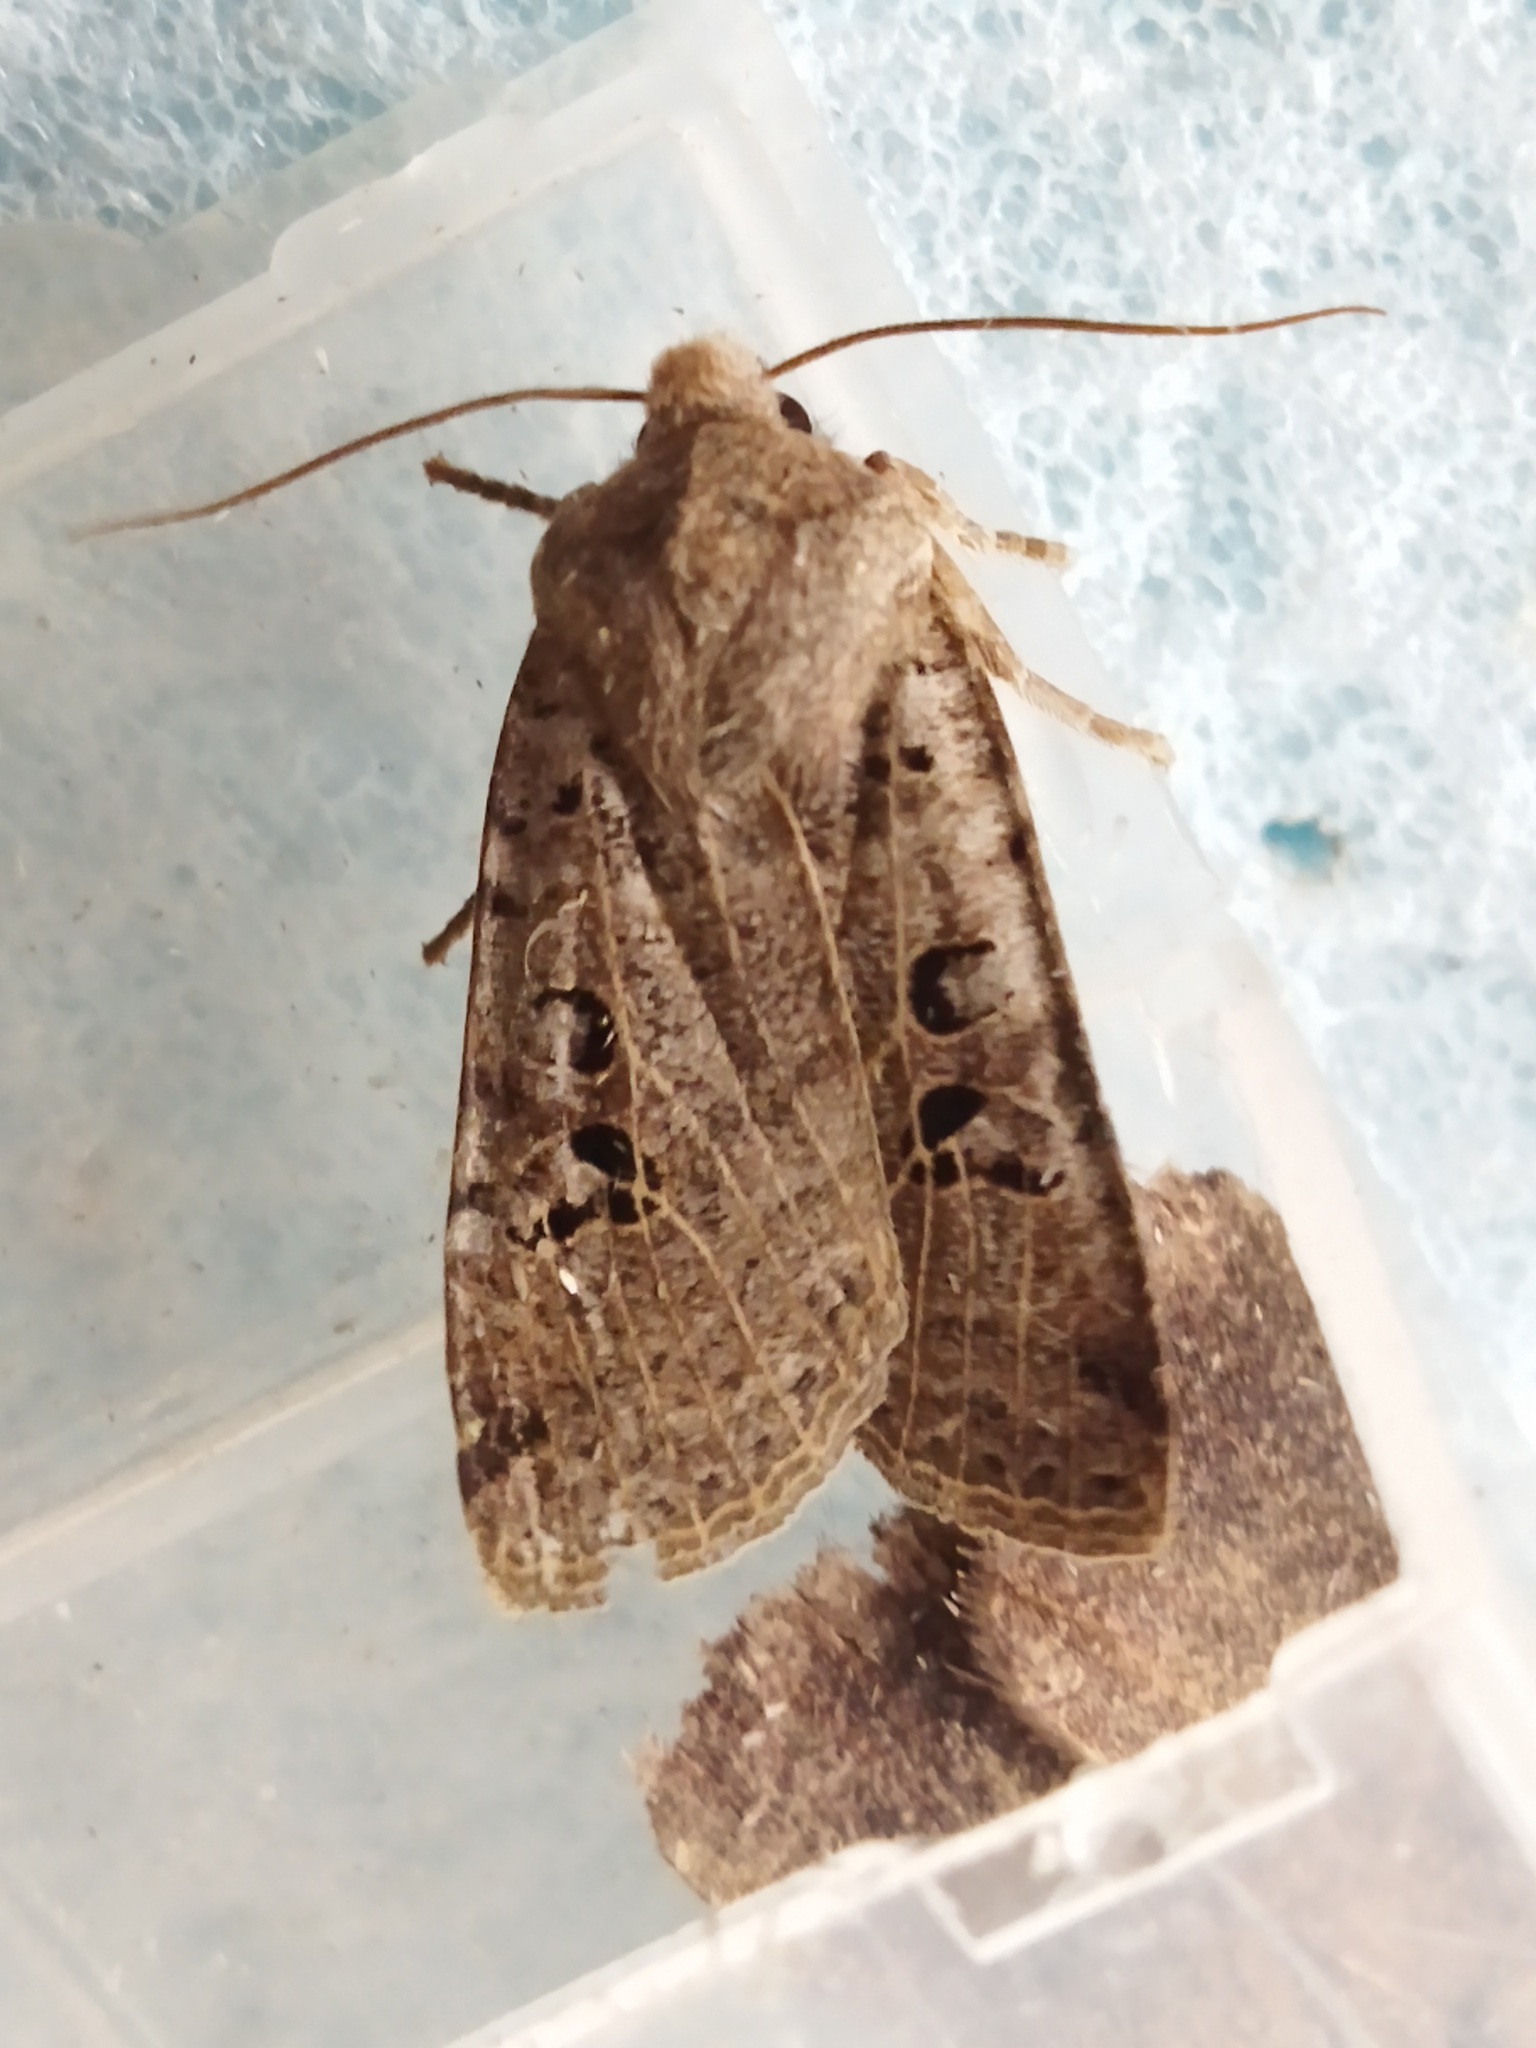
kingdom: Animalia
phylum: Arthropoda
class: Insecta
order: Lepidoptera
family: Noctuidae
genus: Conistra
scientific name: Conistra rubiginosa
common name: Black-spotted chestnut
